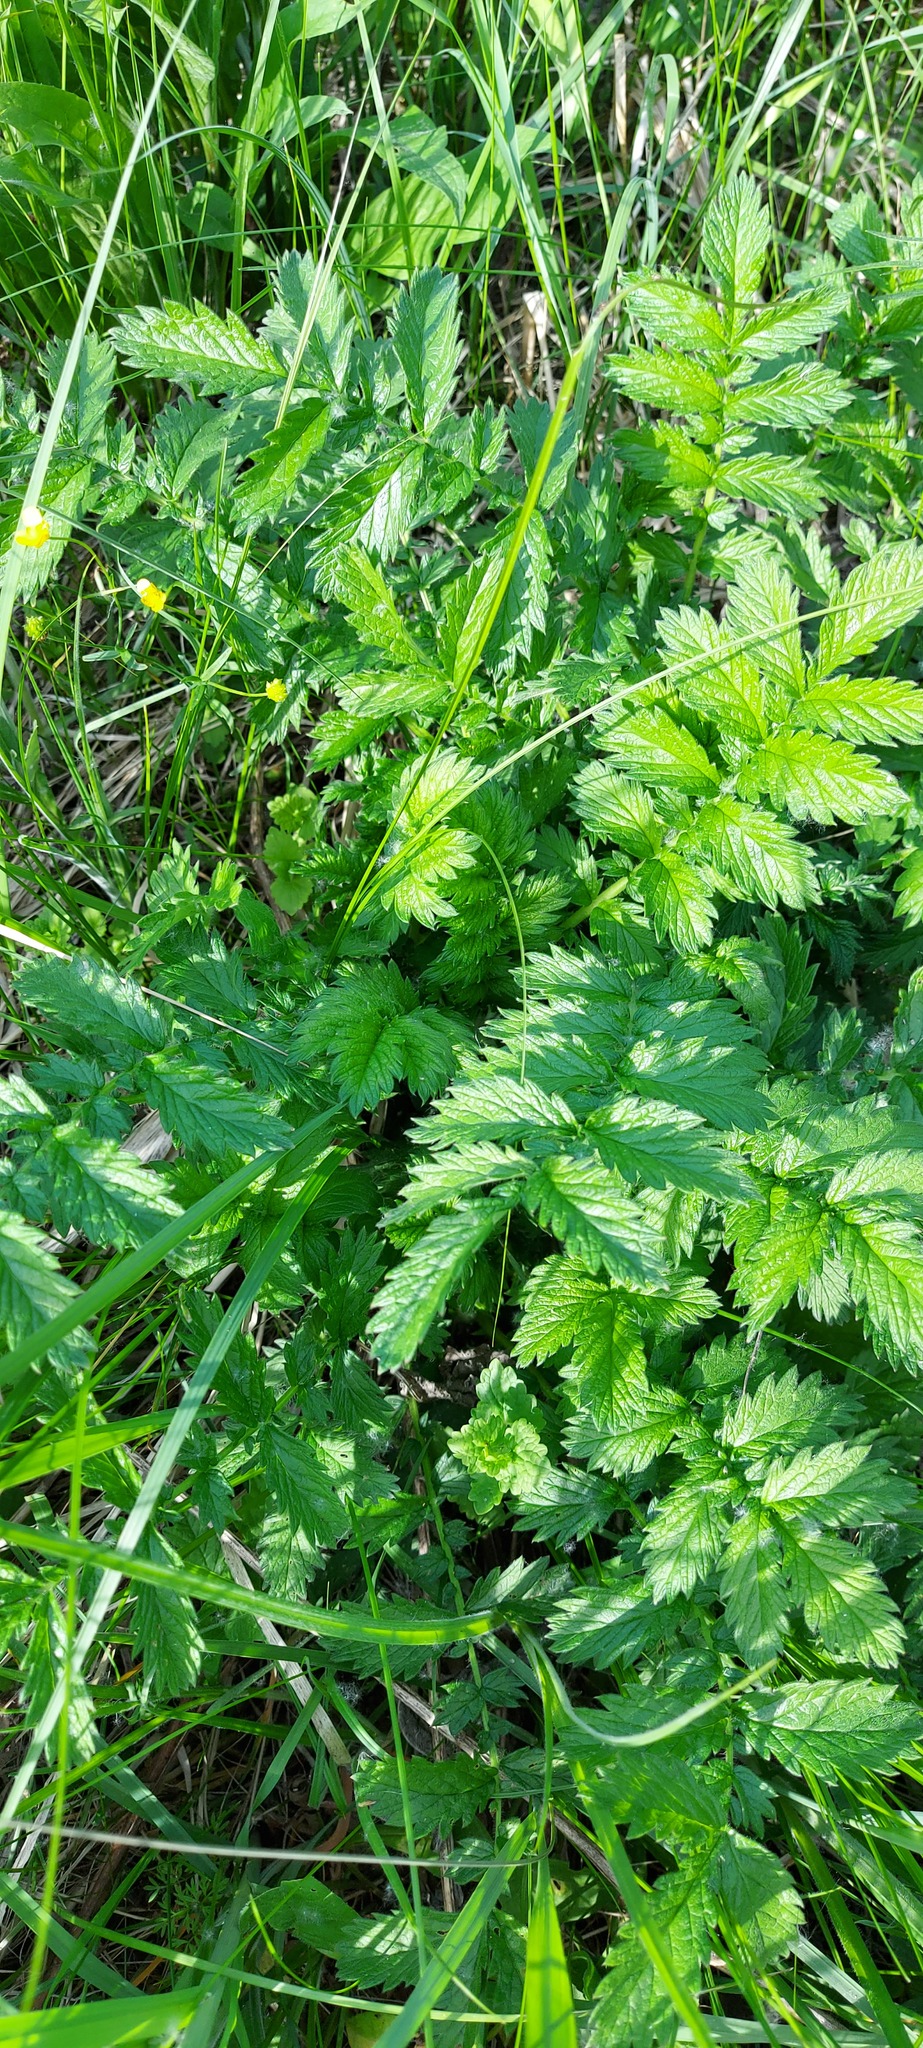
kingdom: Plantae
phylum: Tracheophyta
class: Magnoliopsida
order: Rosales
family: Rosaceae
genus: Agrimonia
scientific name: Agrimonia eupatoria
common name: Agrimony
